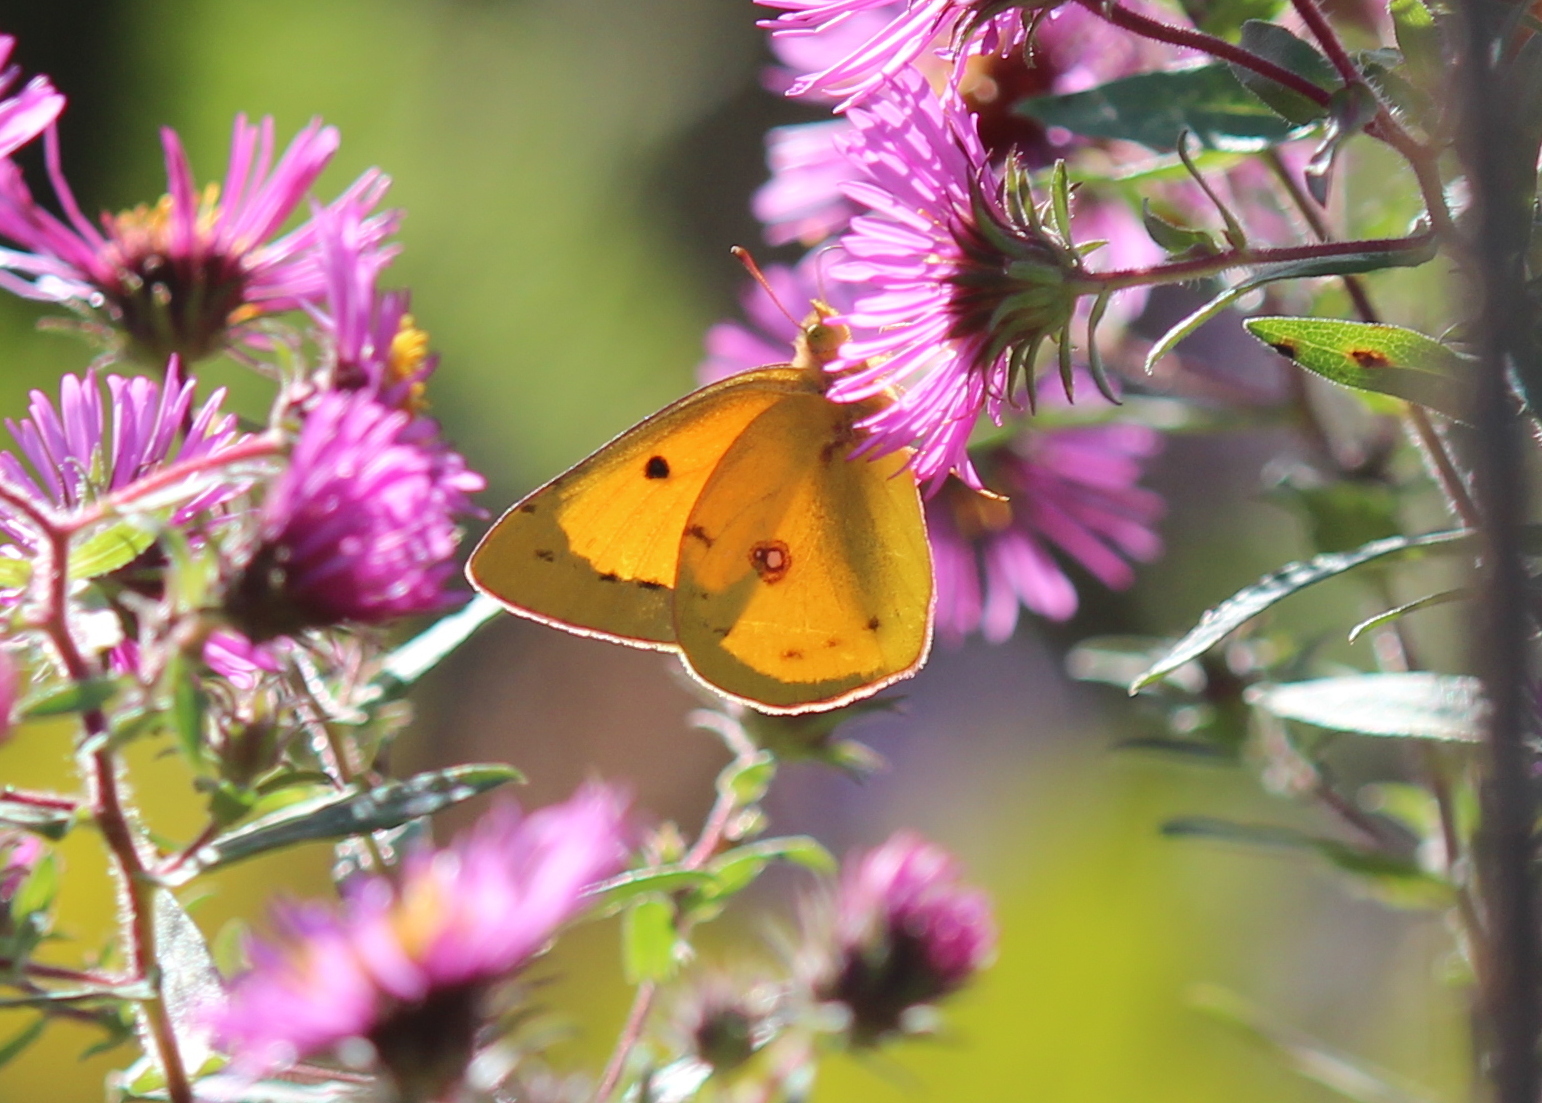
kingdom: Animalia
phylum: Arthropoda
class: Insecta
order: Lepidoptera
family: Pieridae
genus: Colias
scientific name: Colias eurytheme
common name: Alfalfa butterfly
